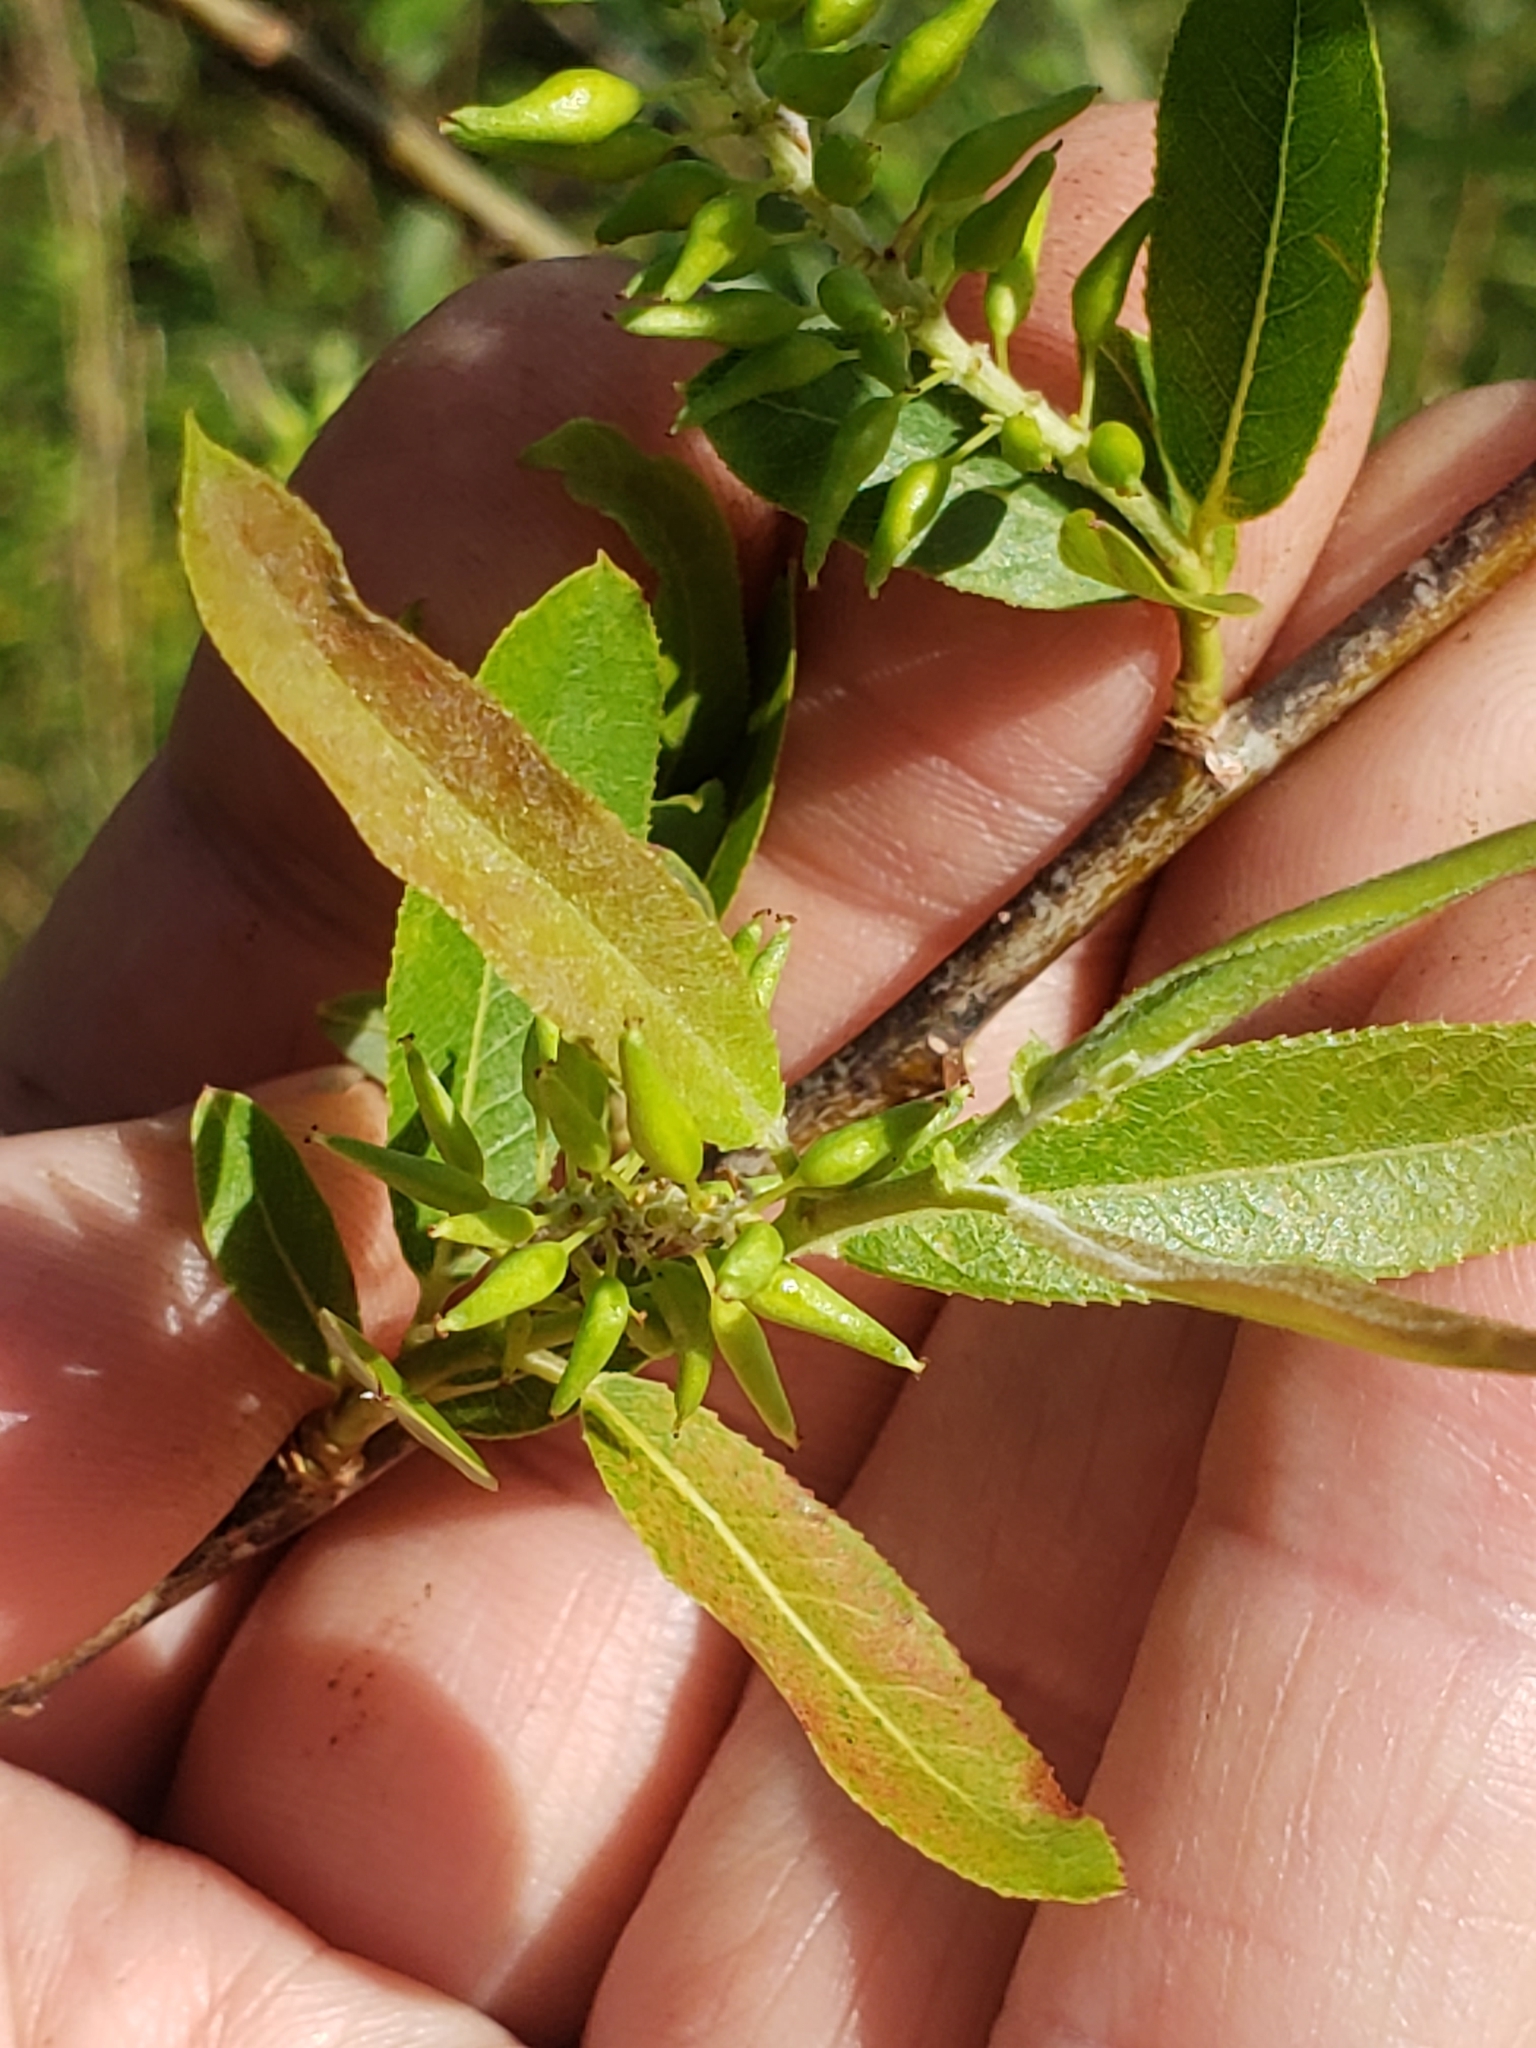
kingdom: Plantae
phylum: Tracheophyta
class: Magnoliopsida
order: Malpighiales
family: Salicaceae
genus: Salix
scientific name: Salix caroliniana
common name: Carolina willow
